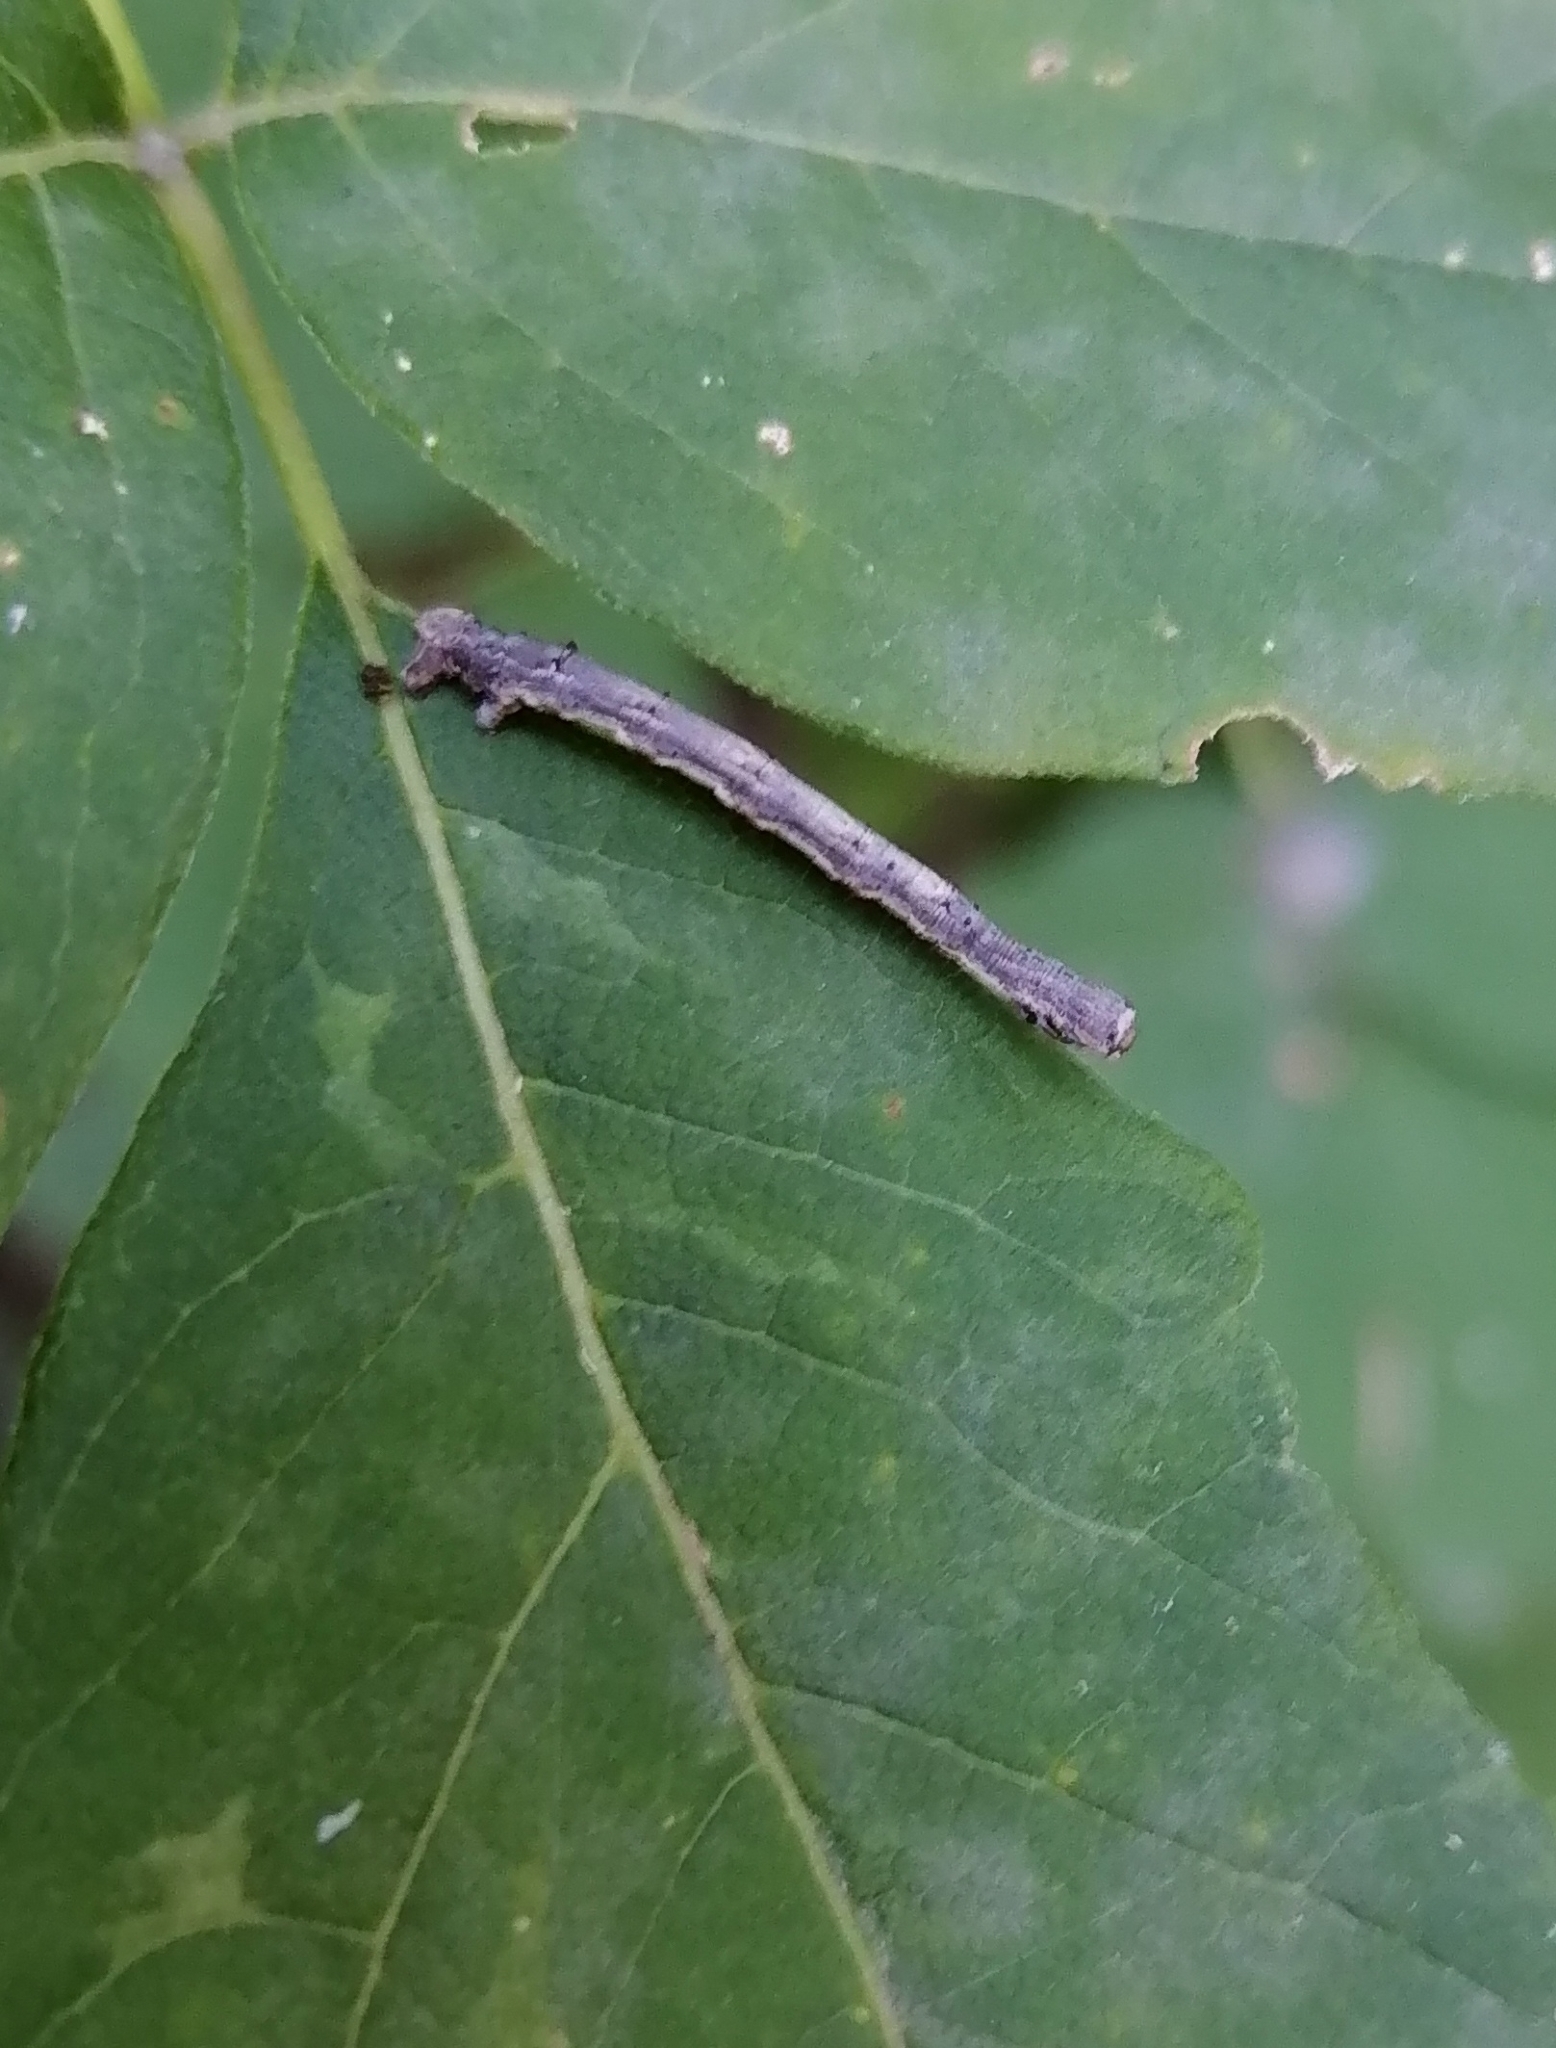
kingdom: Animalia
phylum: Arthropoda
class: Insecta
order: Lepidoptera
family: Geometridae
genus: Angerona
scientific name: Angerona prunaria
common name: Orange moth
